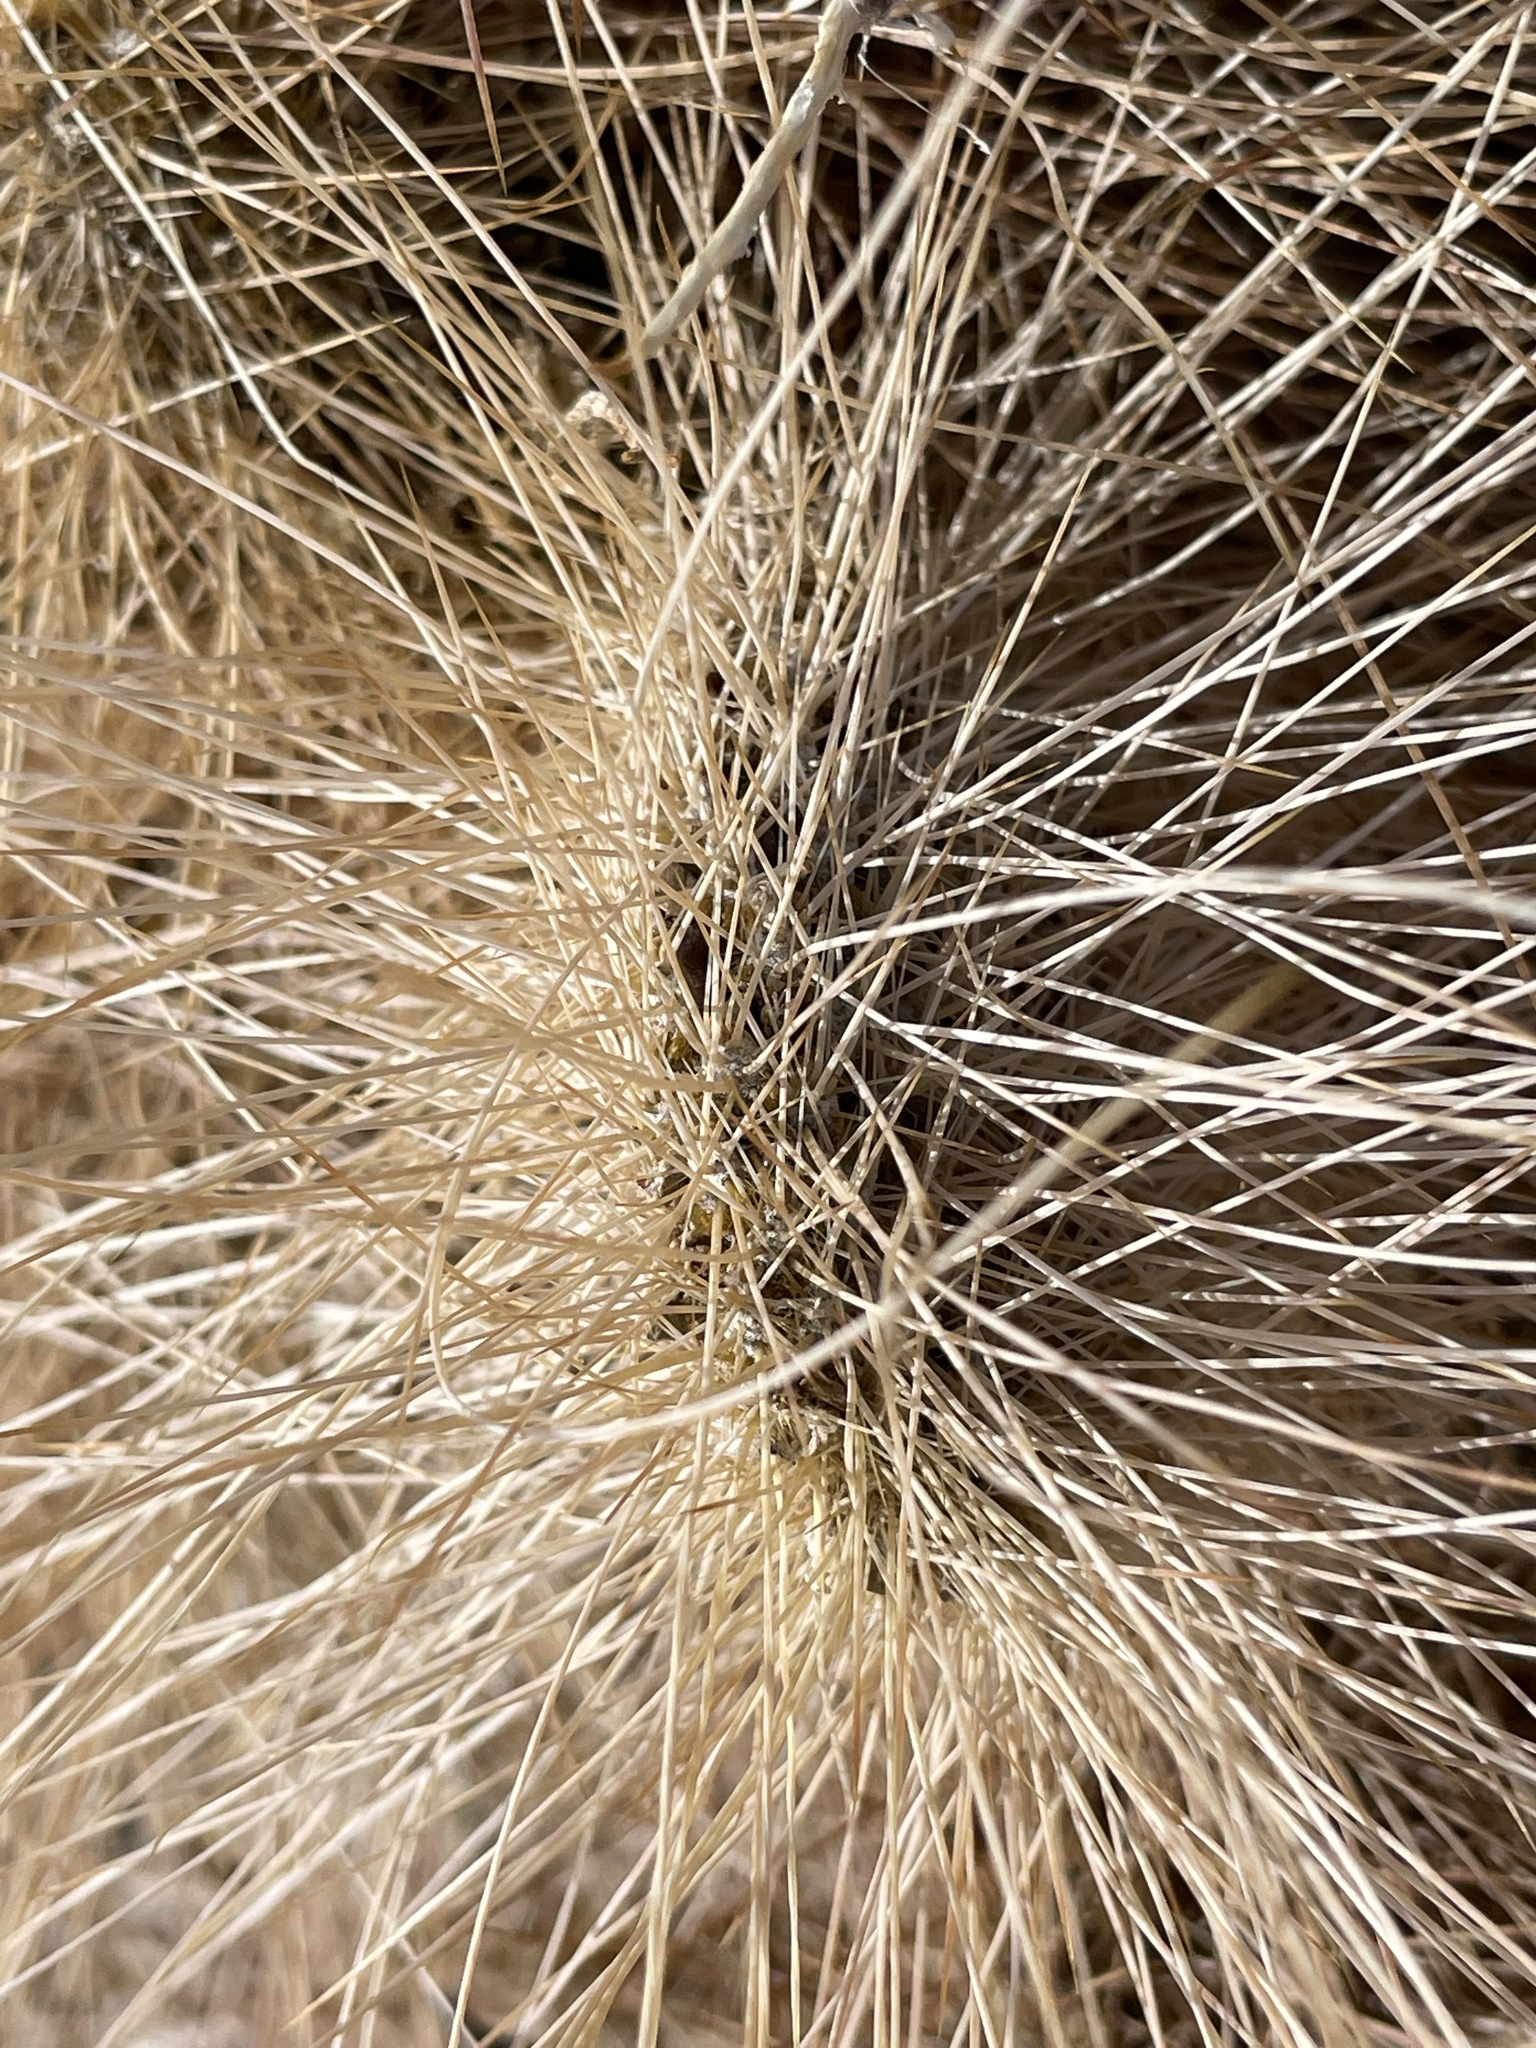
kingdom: Plantae
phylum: Tracheophyta
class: Magnoliopsida
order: Caryophyllales
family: Cactaceae
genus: Opuntia
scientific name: Opuntia polyacantha
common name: Plains prickly-pear
